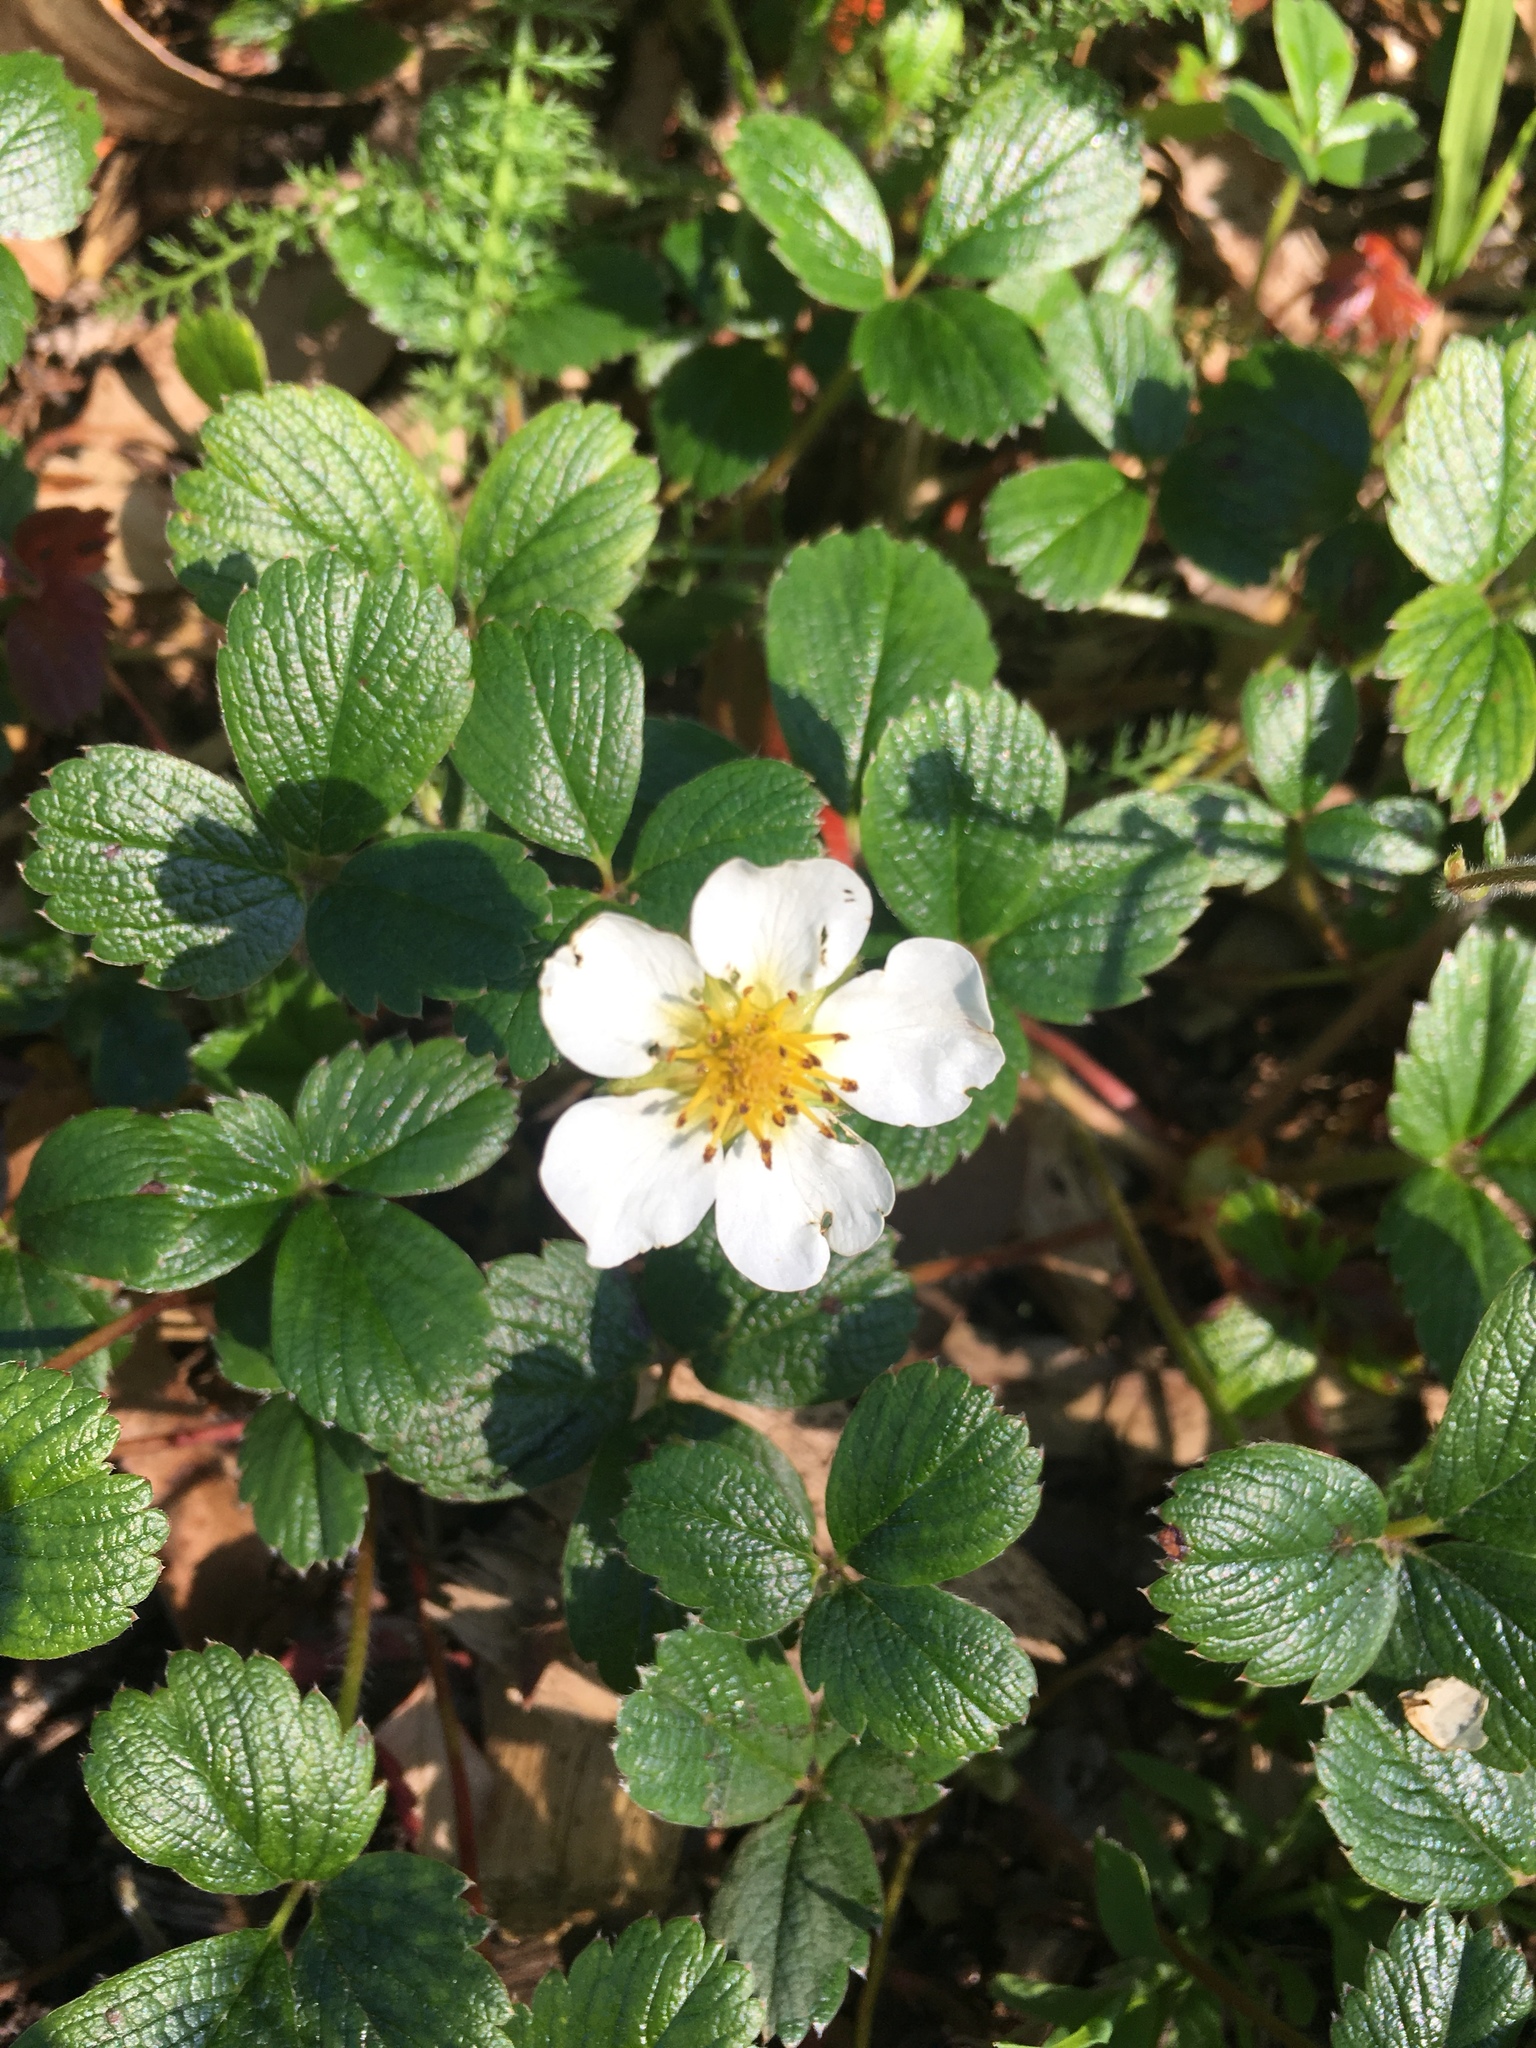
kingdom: Plantae
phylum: Tracheophyta
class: Magnoliopsida
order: Rosales
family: Rosaceae
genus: Fragaria
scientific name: Fragaria chiloensis
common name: Beach strawberry
